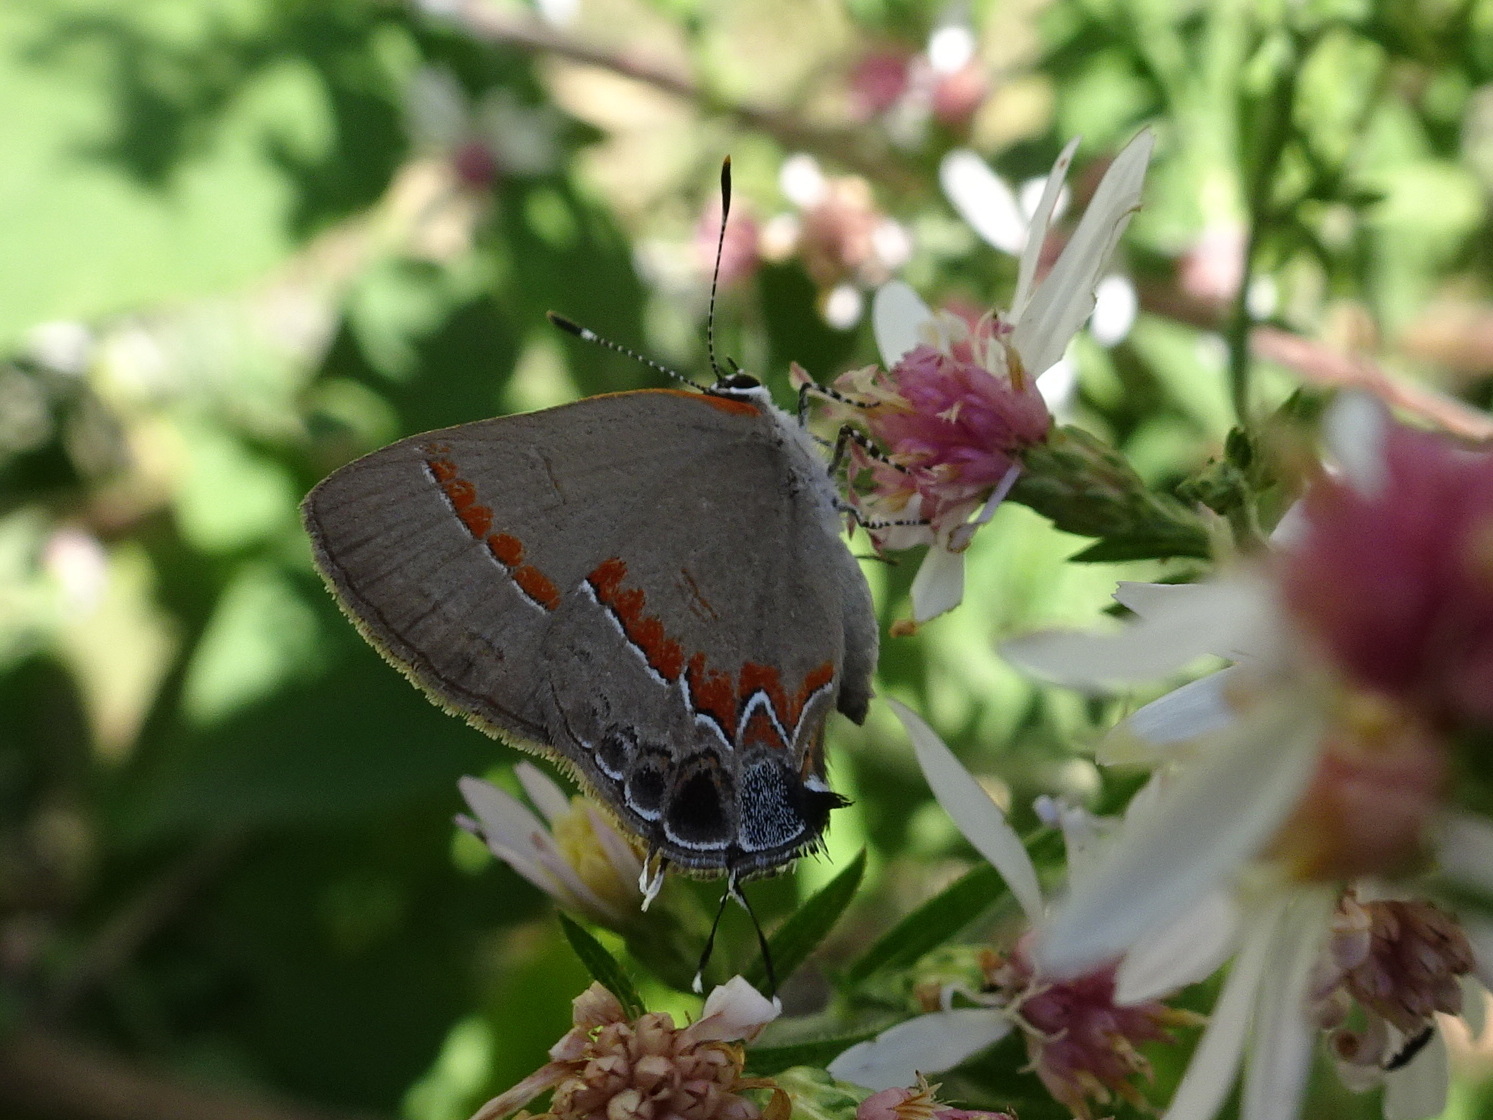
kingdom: Animalia
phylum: Arthropoda
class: Insecta
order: Lepidoptera
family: Lycaenidae
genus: Calycopis
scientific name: Calycopis cecrops
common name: Red-banded hairstreak
